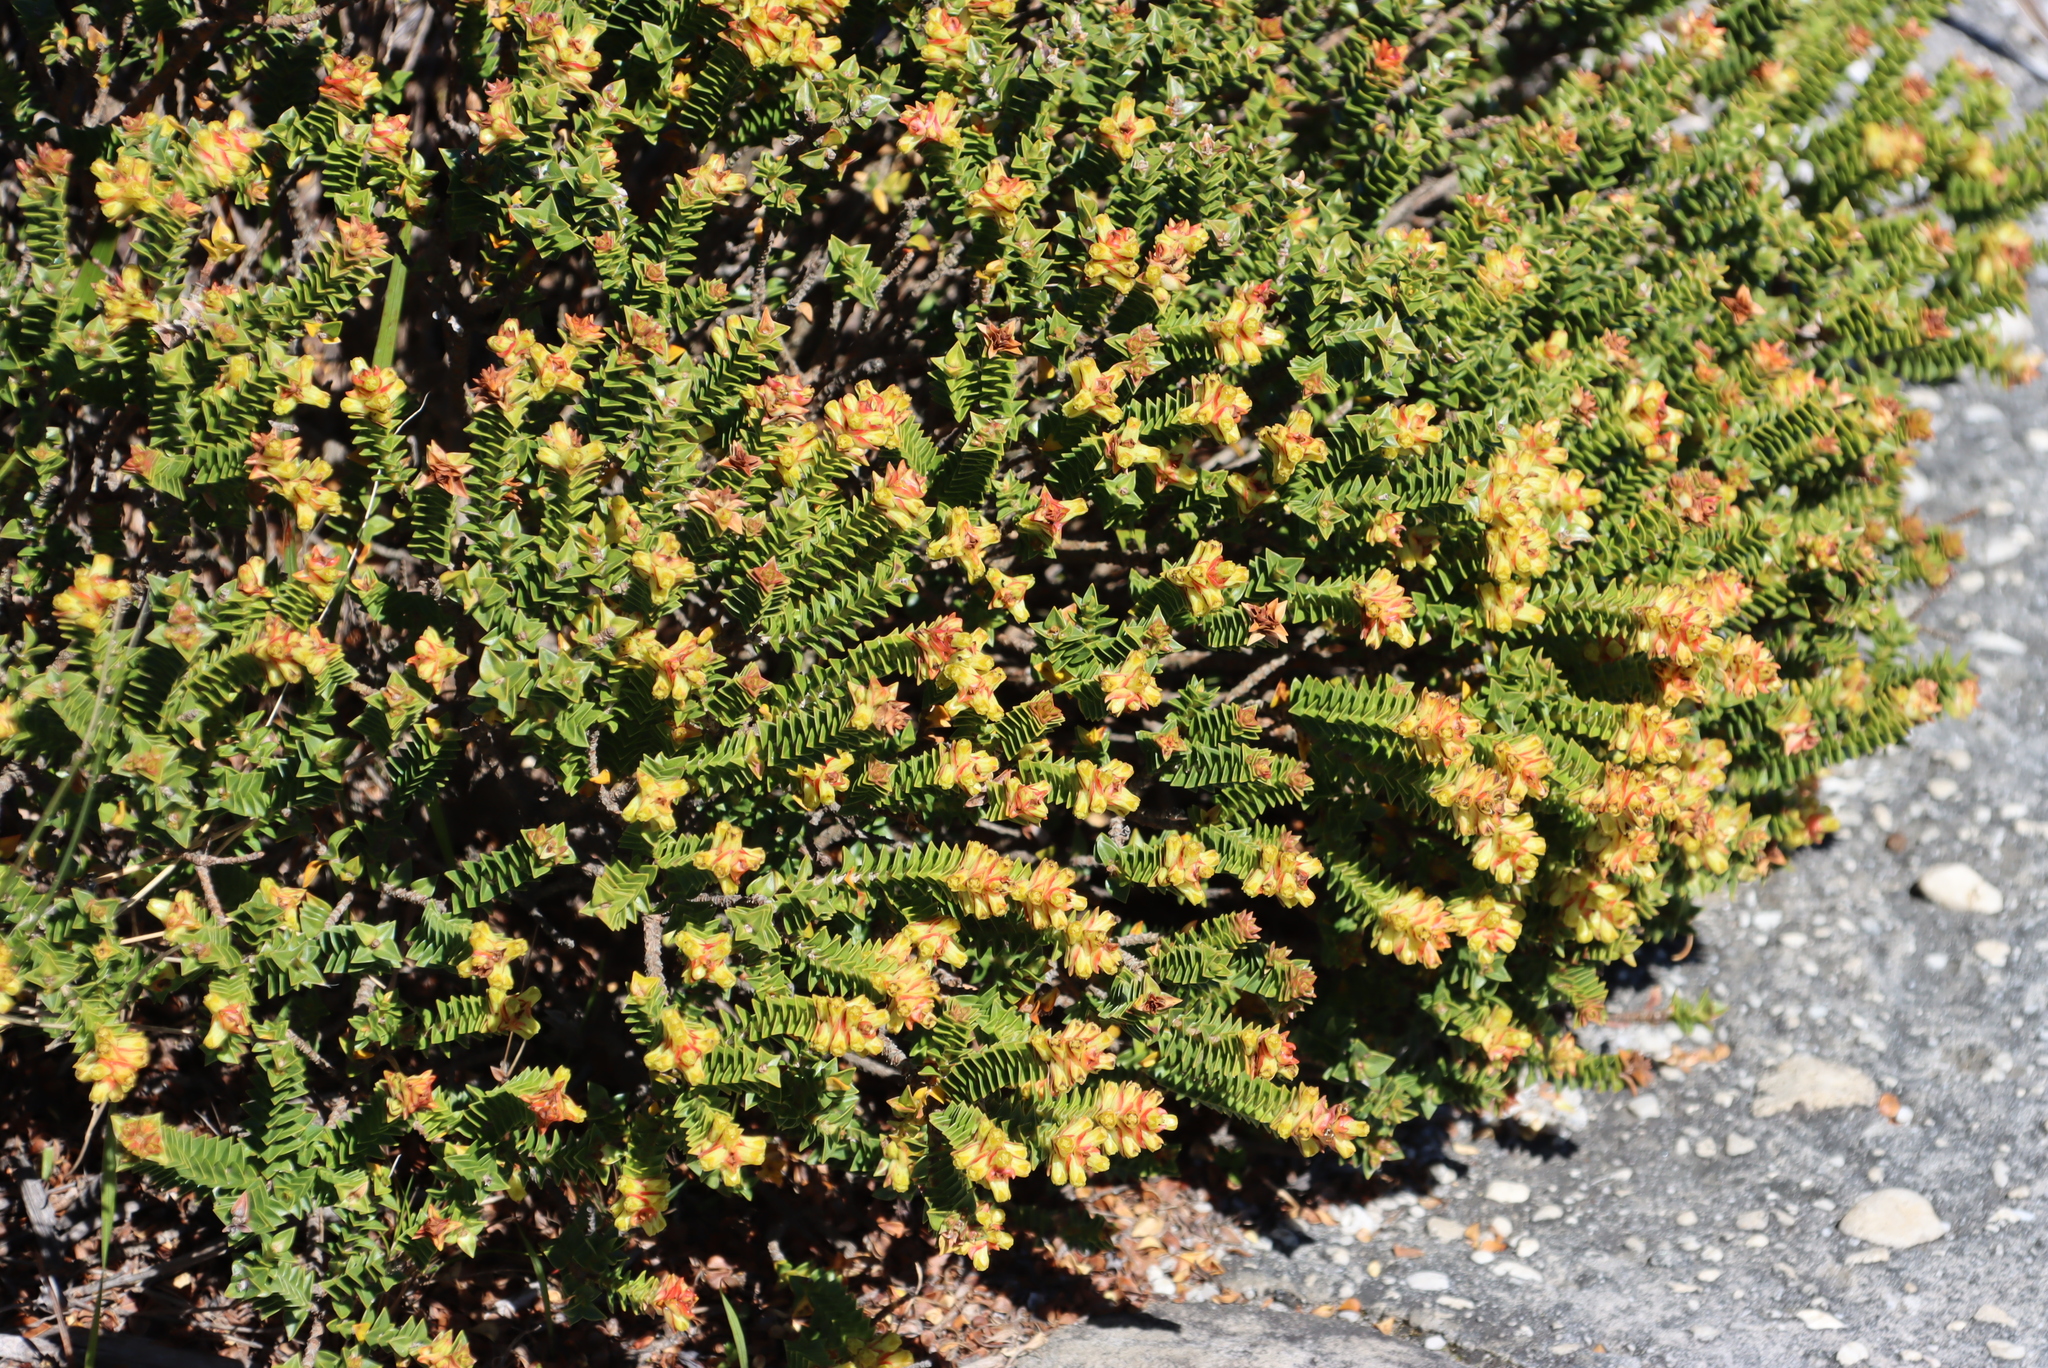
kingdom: Plantae
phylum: Tracheophyta
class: Magnoliopsida
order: Myrtales
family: Penaeaceae
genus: Penaea
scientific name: Penaea mucronata
